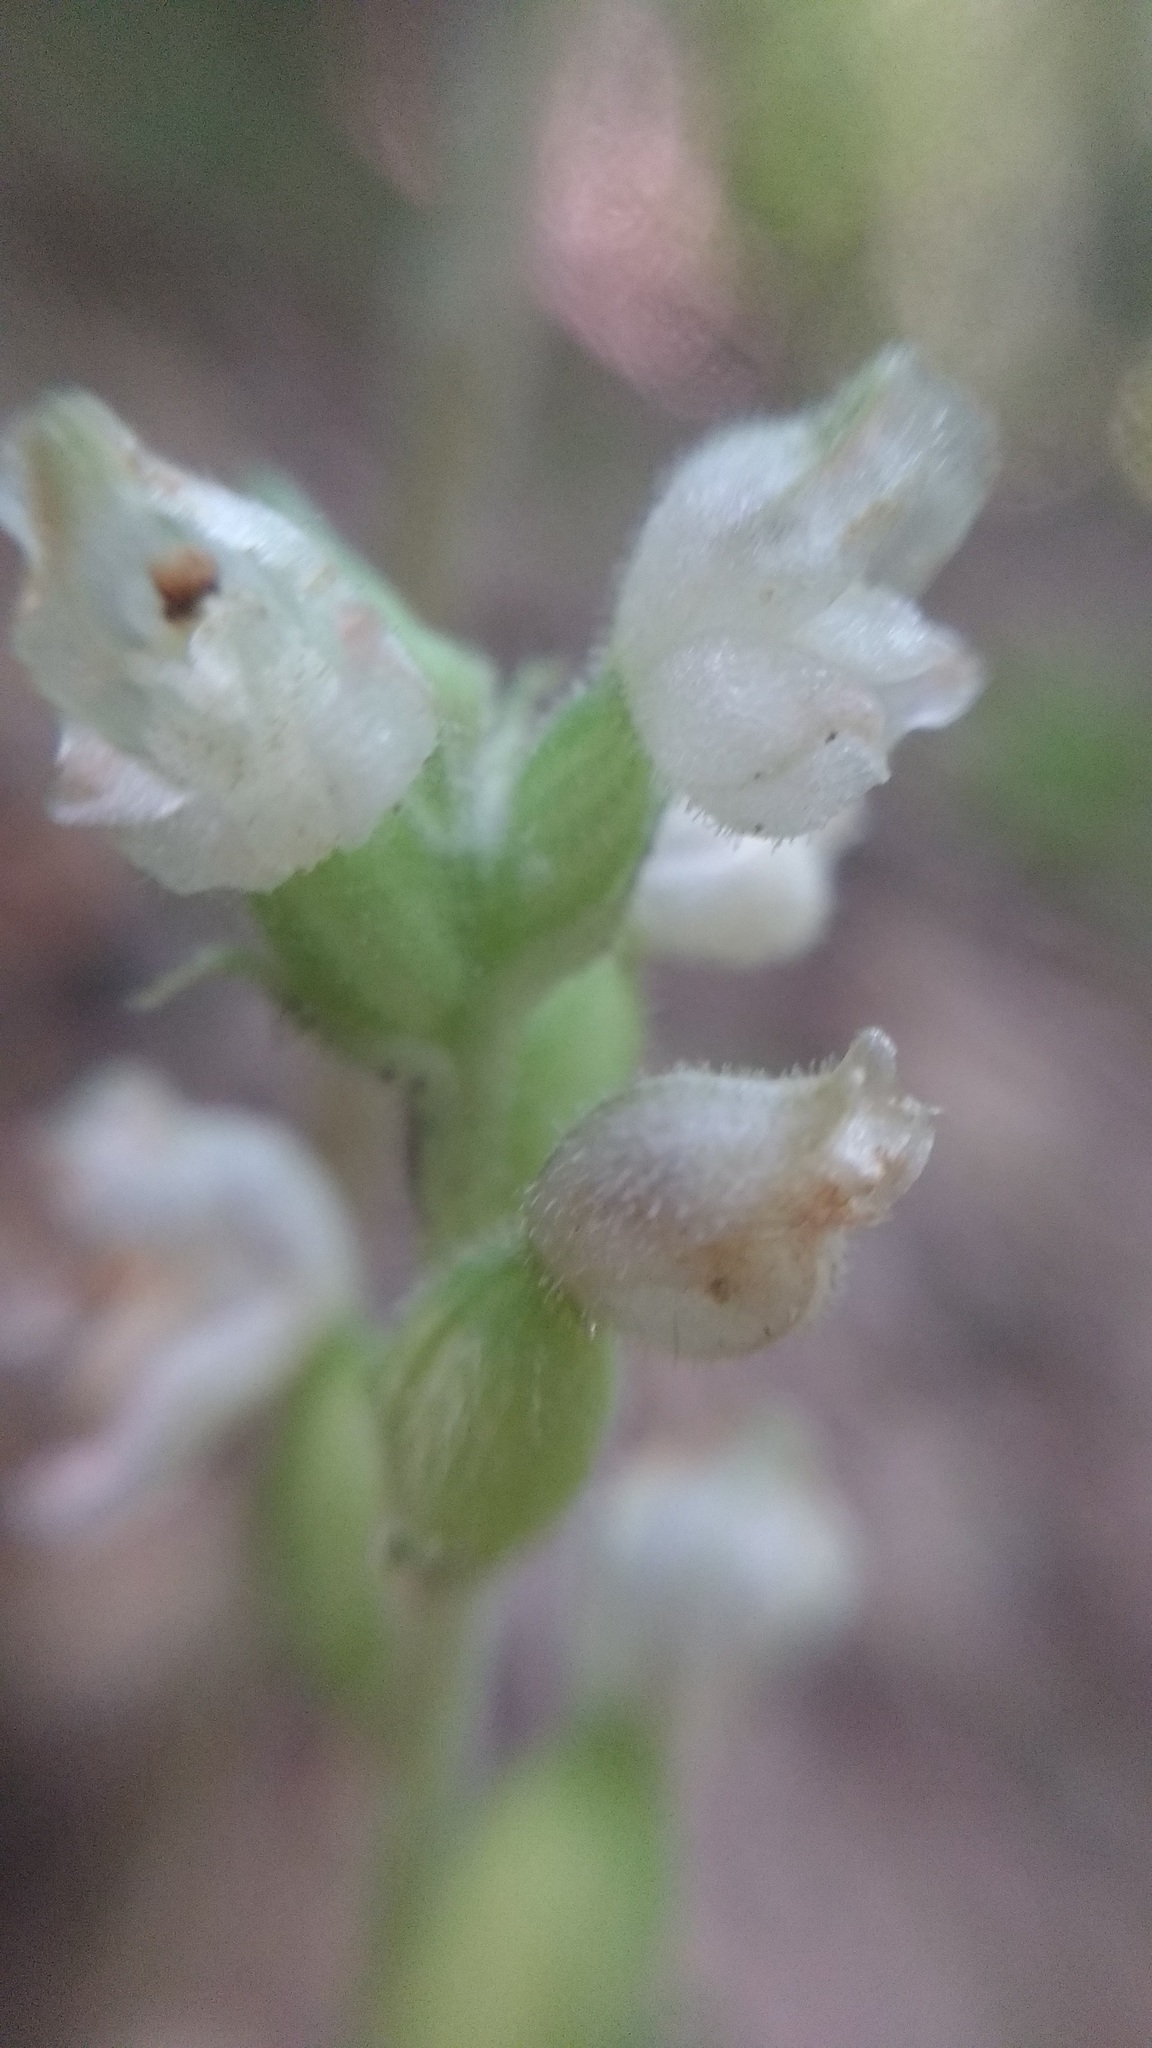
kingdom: Plantae
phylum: Tracheophyta
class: Liliopsida
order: Asparagales
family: Orchidaceae
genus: Goodyera
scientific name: Goodyera pubescens
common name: Downy rattlesnake-plantain
